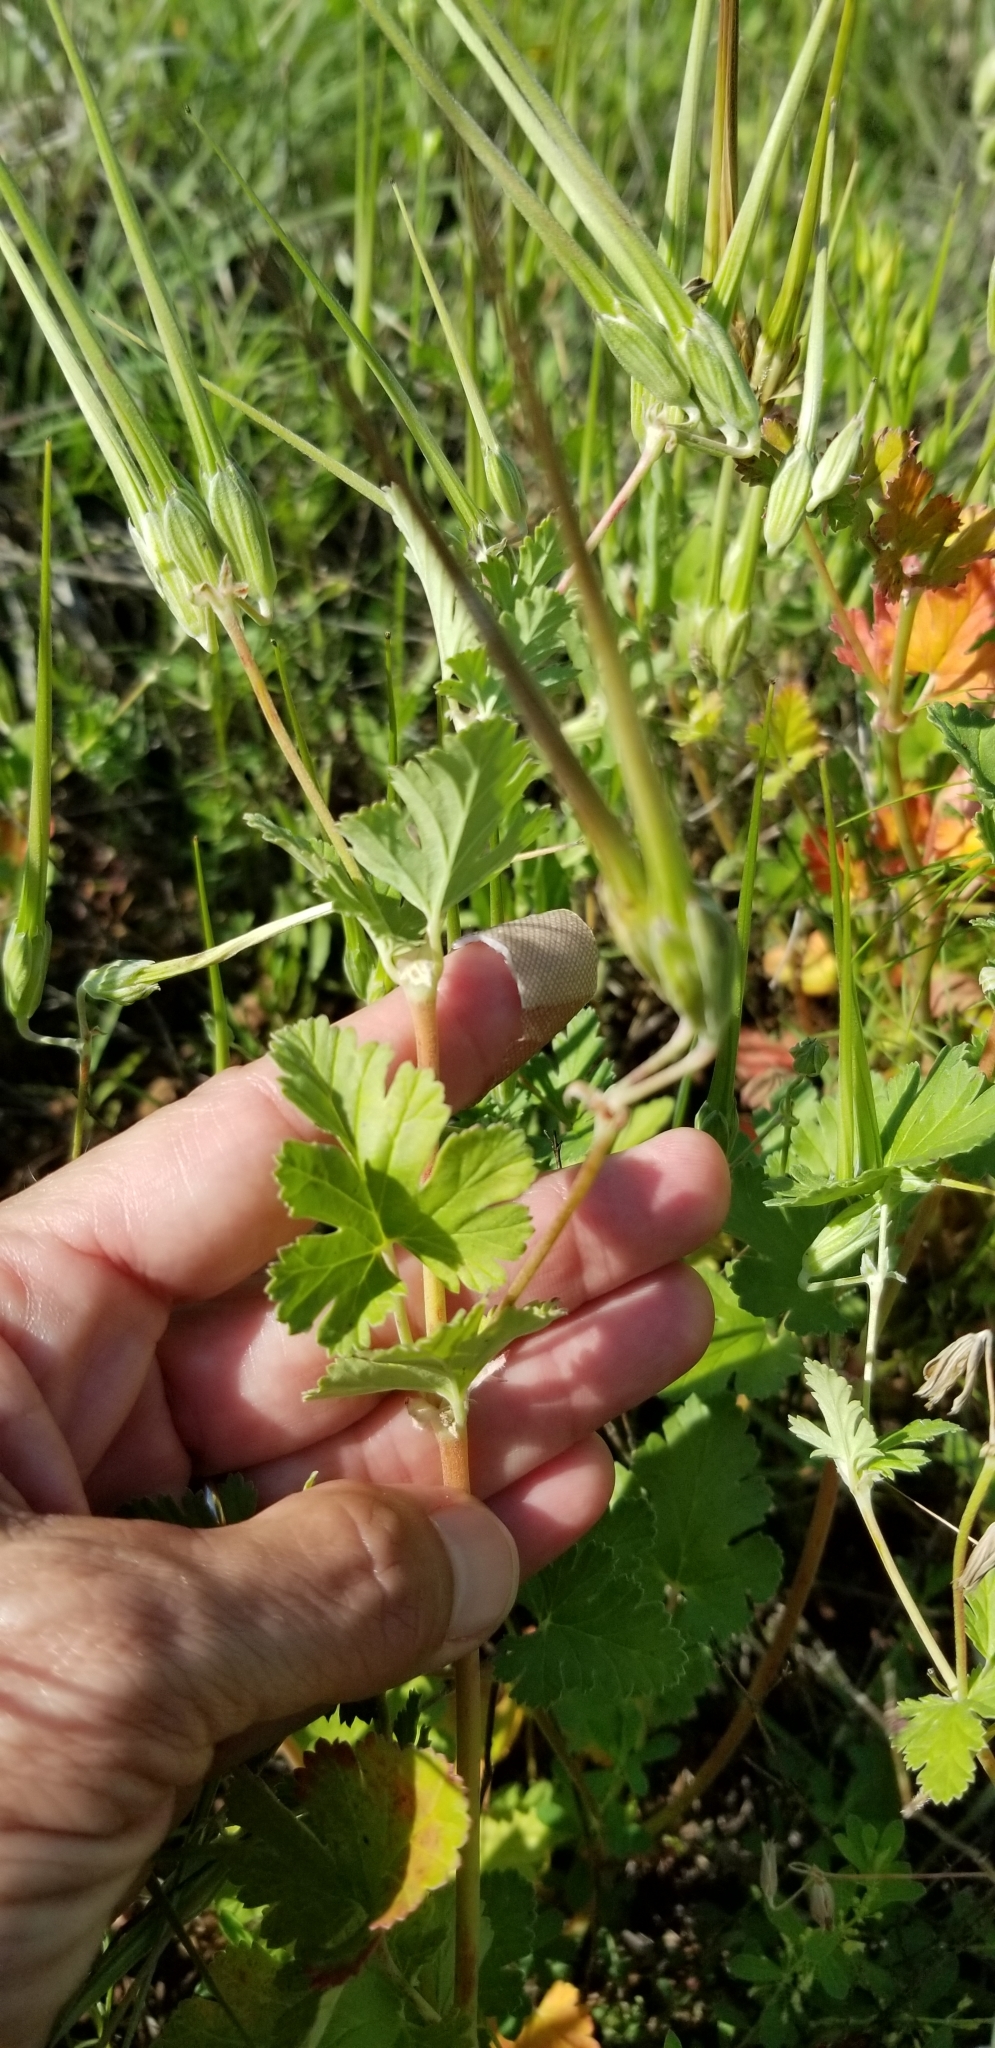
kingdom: Plantae
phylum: Tracheophyta
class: Magnoliopsida
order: Geraniales
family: Geraniaceae
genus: Erodium
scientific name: Erodium texanum
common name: Texas stork's-bill
